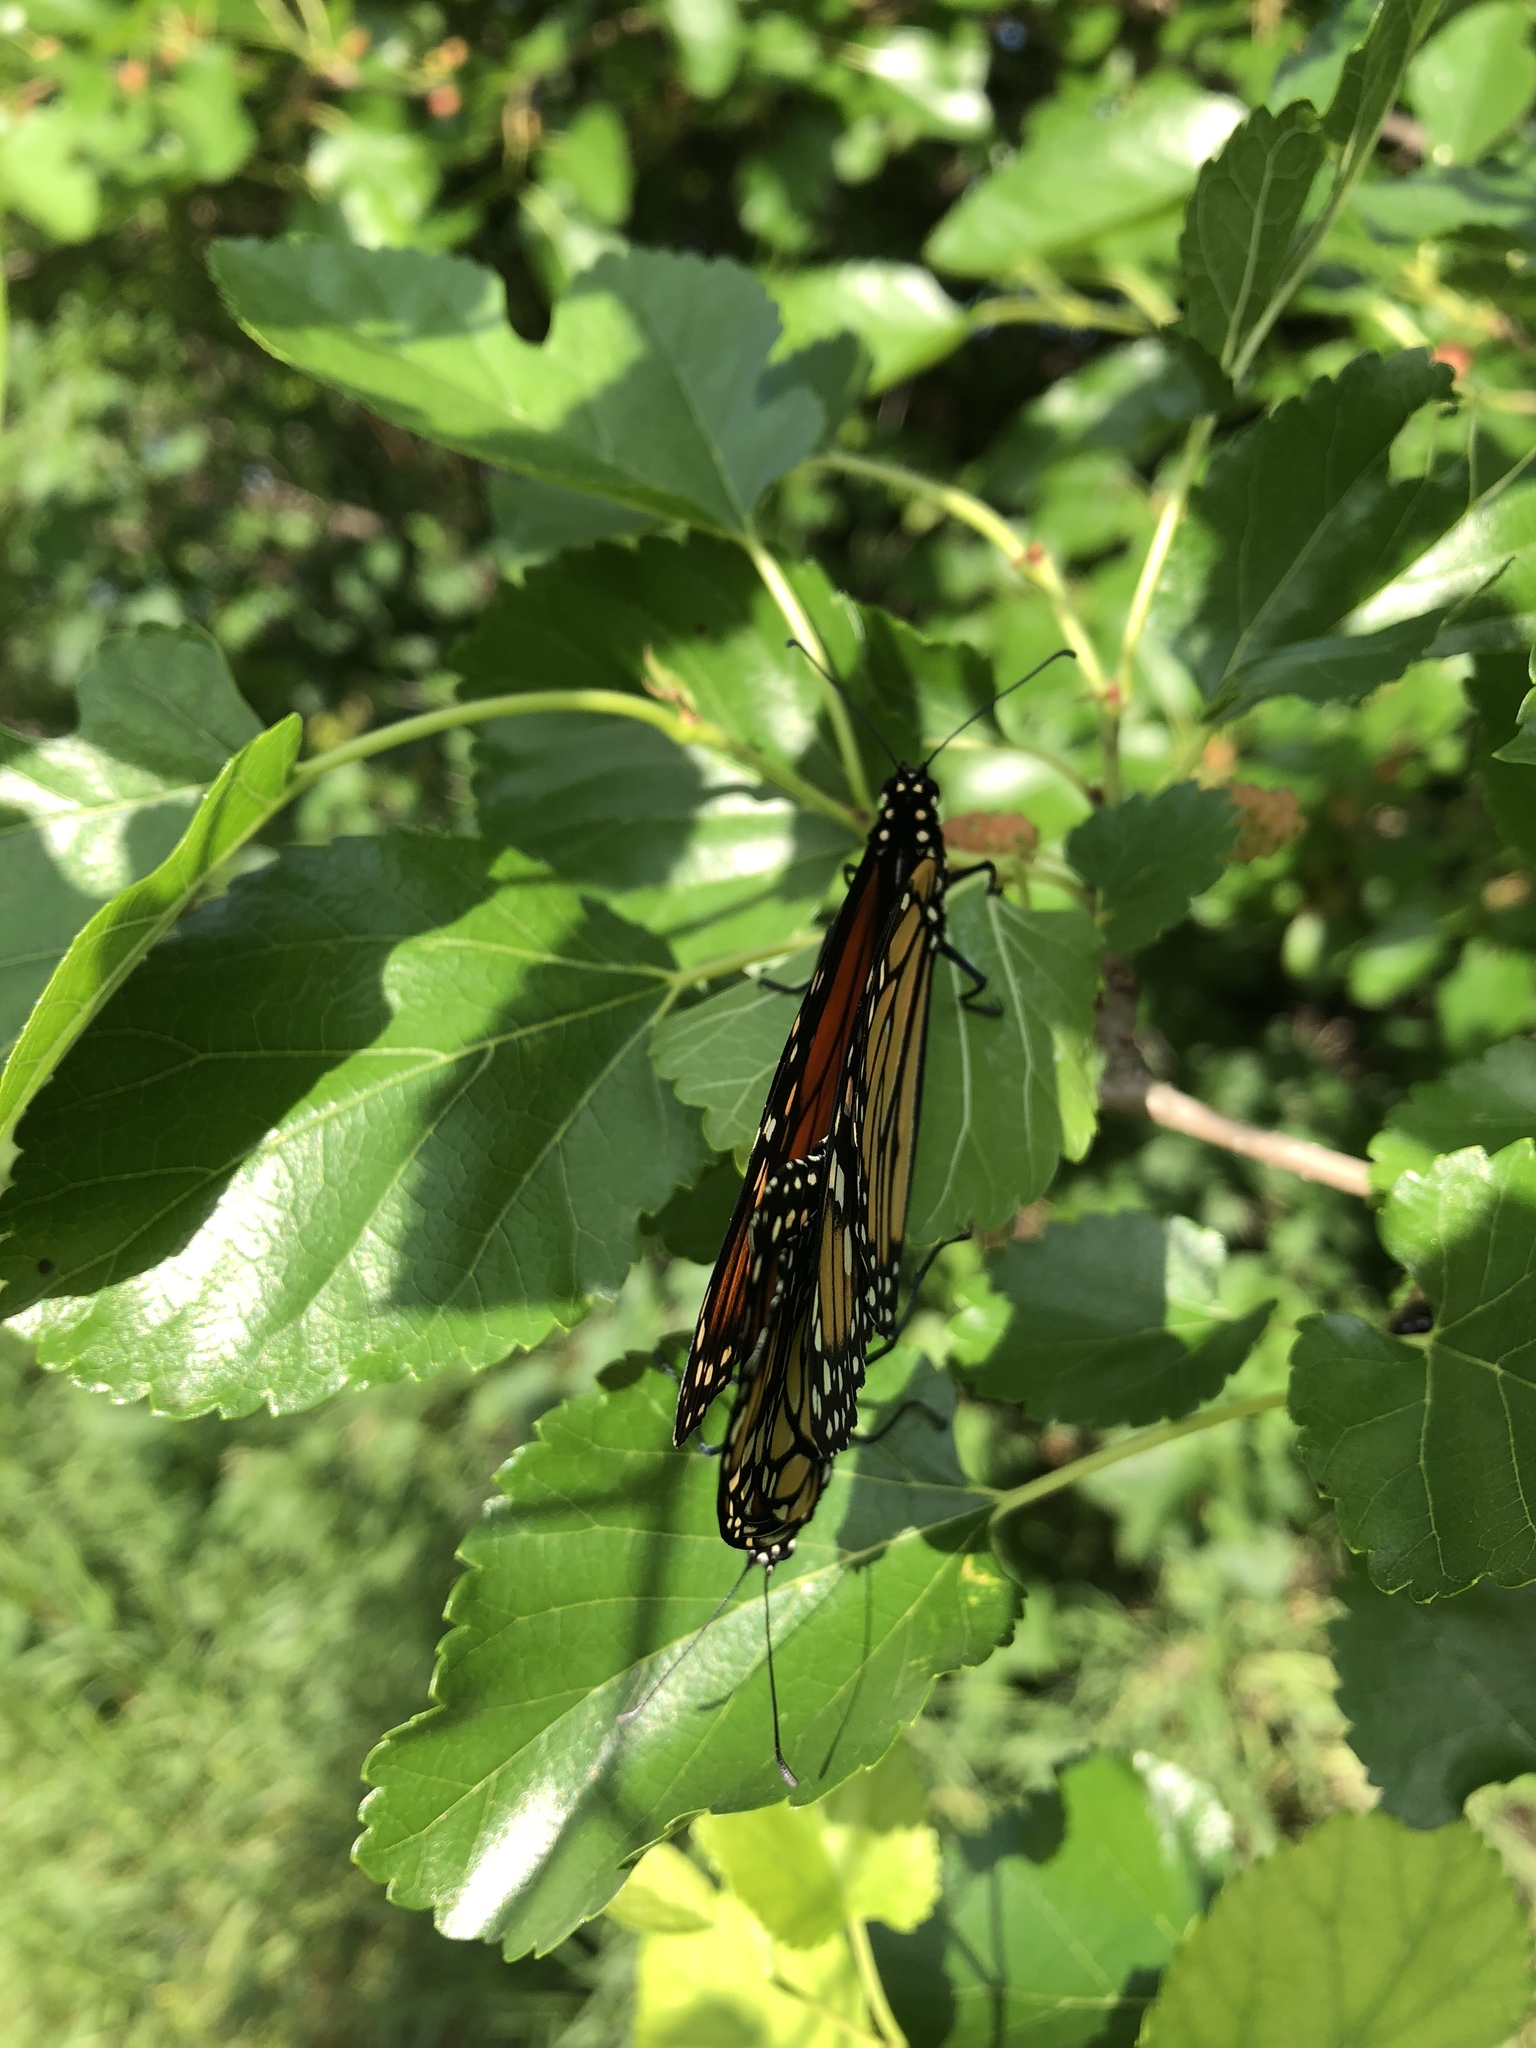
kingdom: Animalia
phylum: Arthropoda
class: Insecta
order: Lepidoptera
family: Nymphalidae
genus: Danaus
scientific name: Danaus plexippus
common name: Monarch
